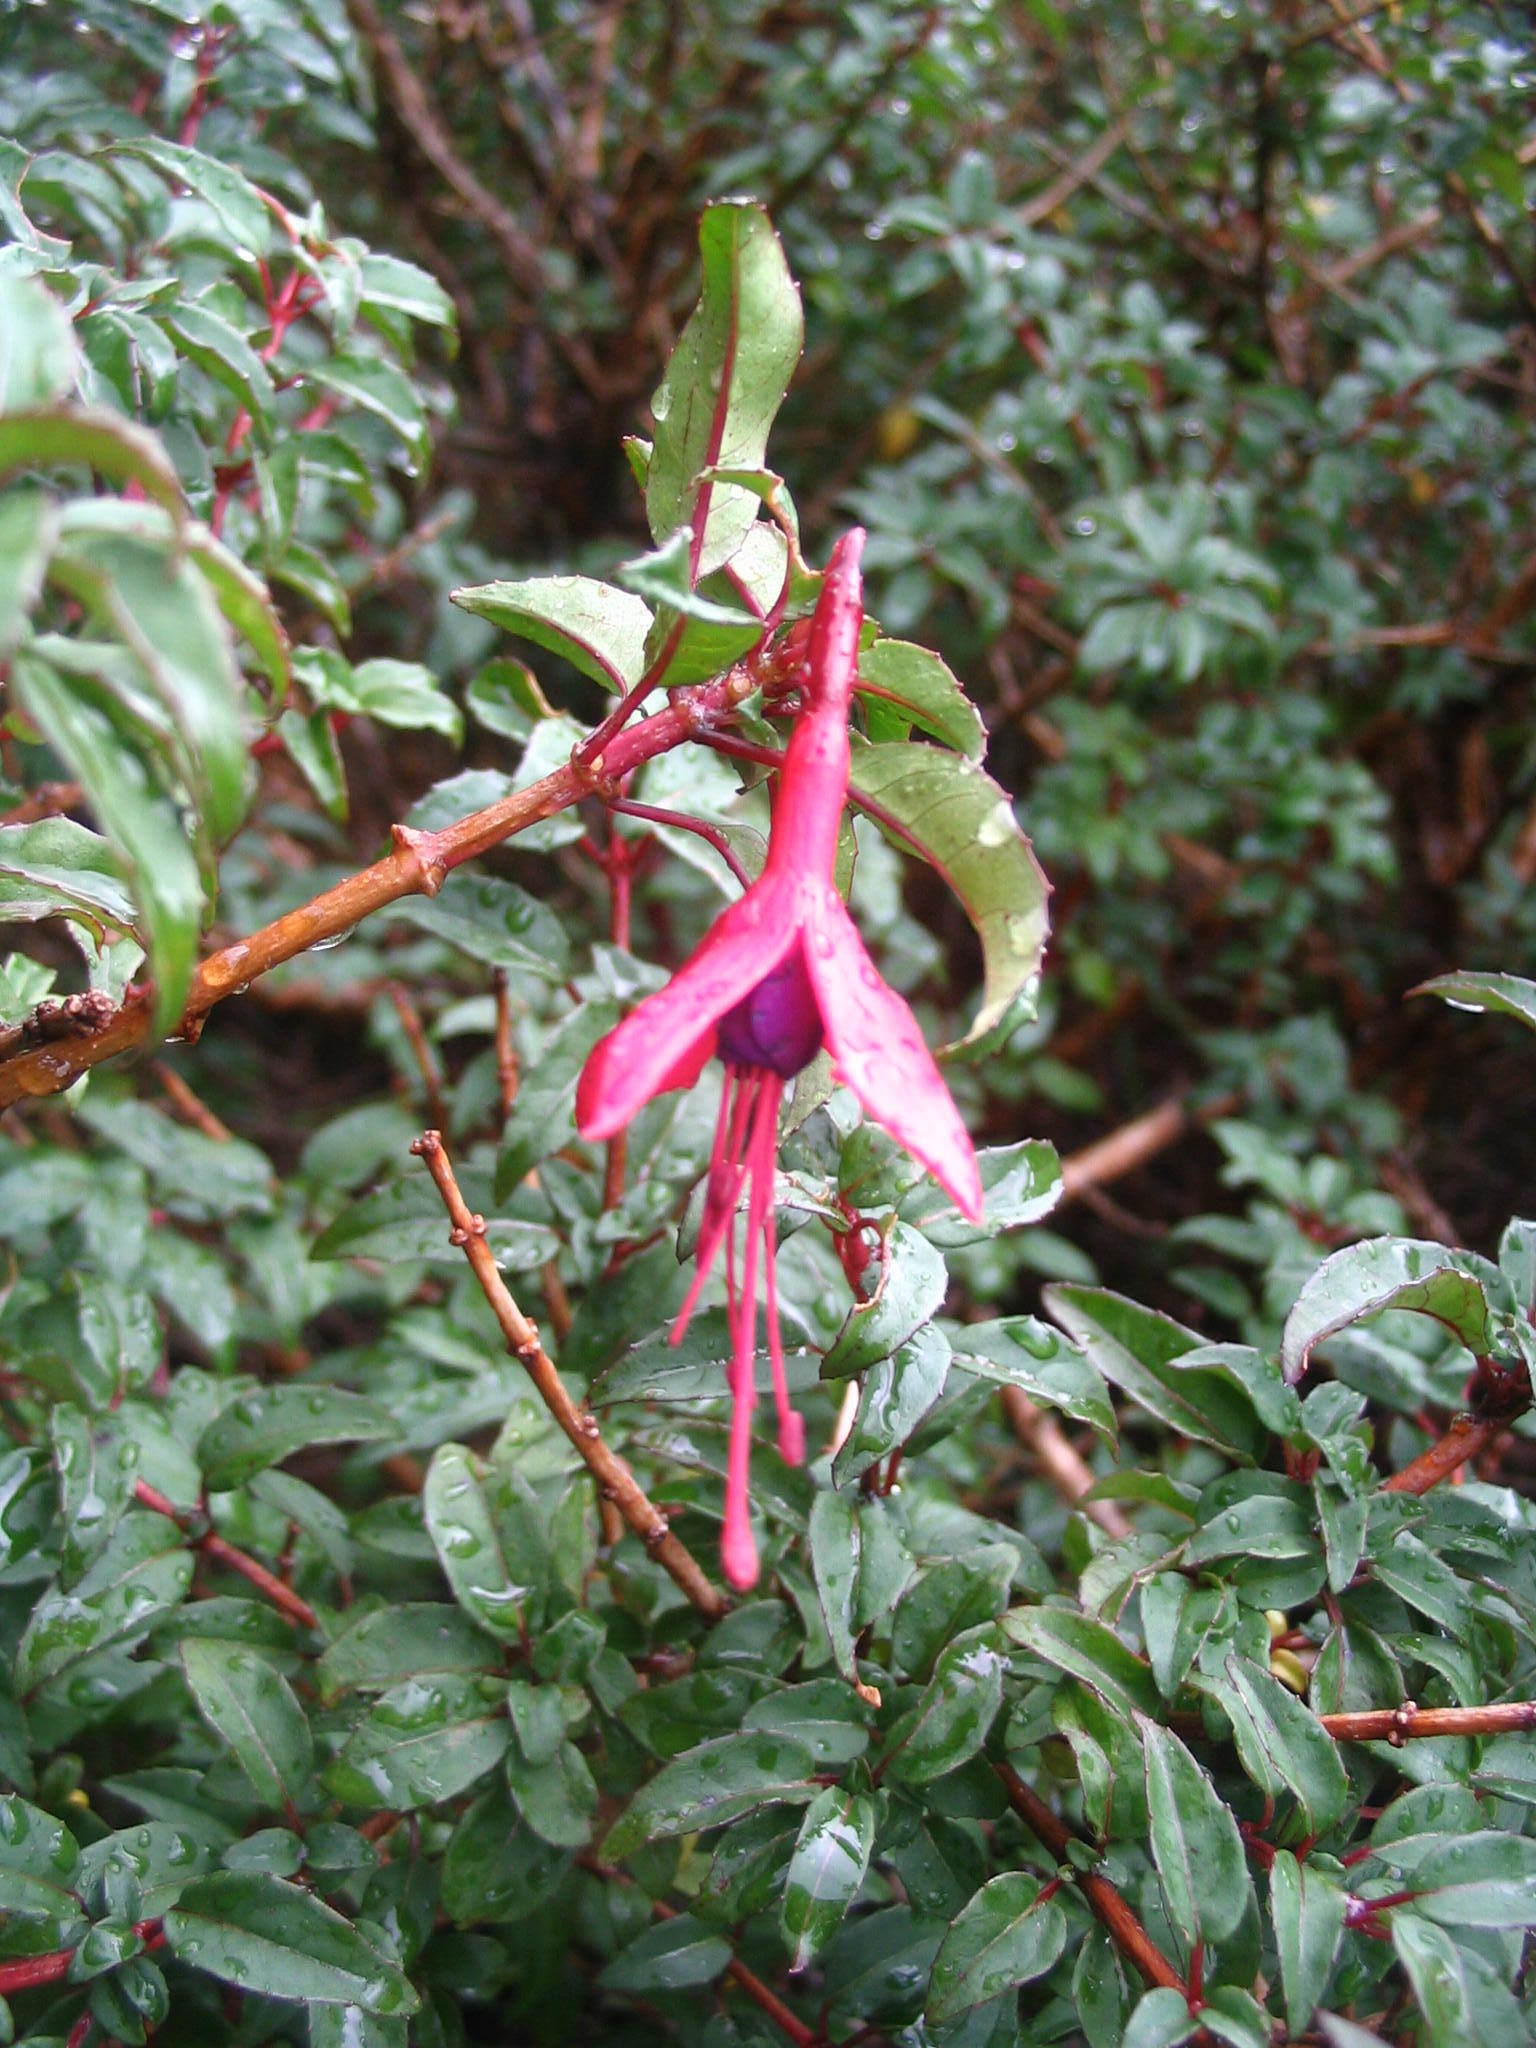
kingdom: Plantae
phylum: Tracheophyta
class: Magnoliopsida
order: Myrtales
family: Onagraceae
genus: Fuchsia
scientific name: Fuchsia magellanica
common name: Hardy fuchsia
